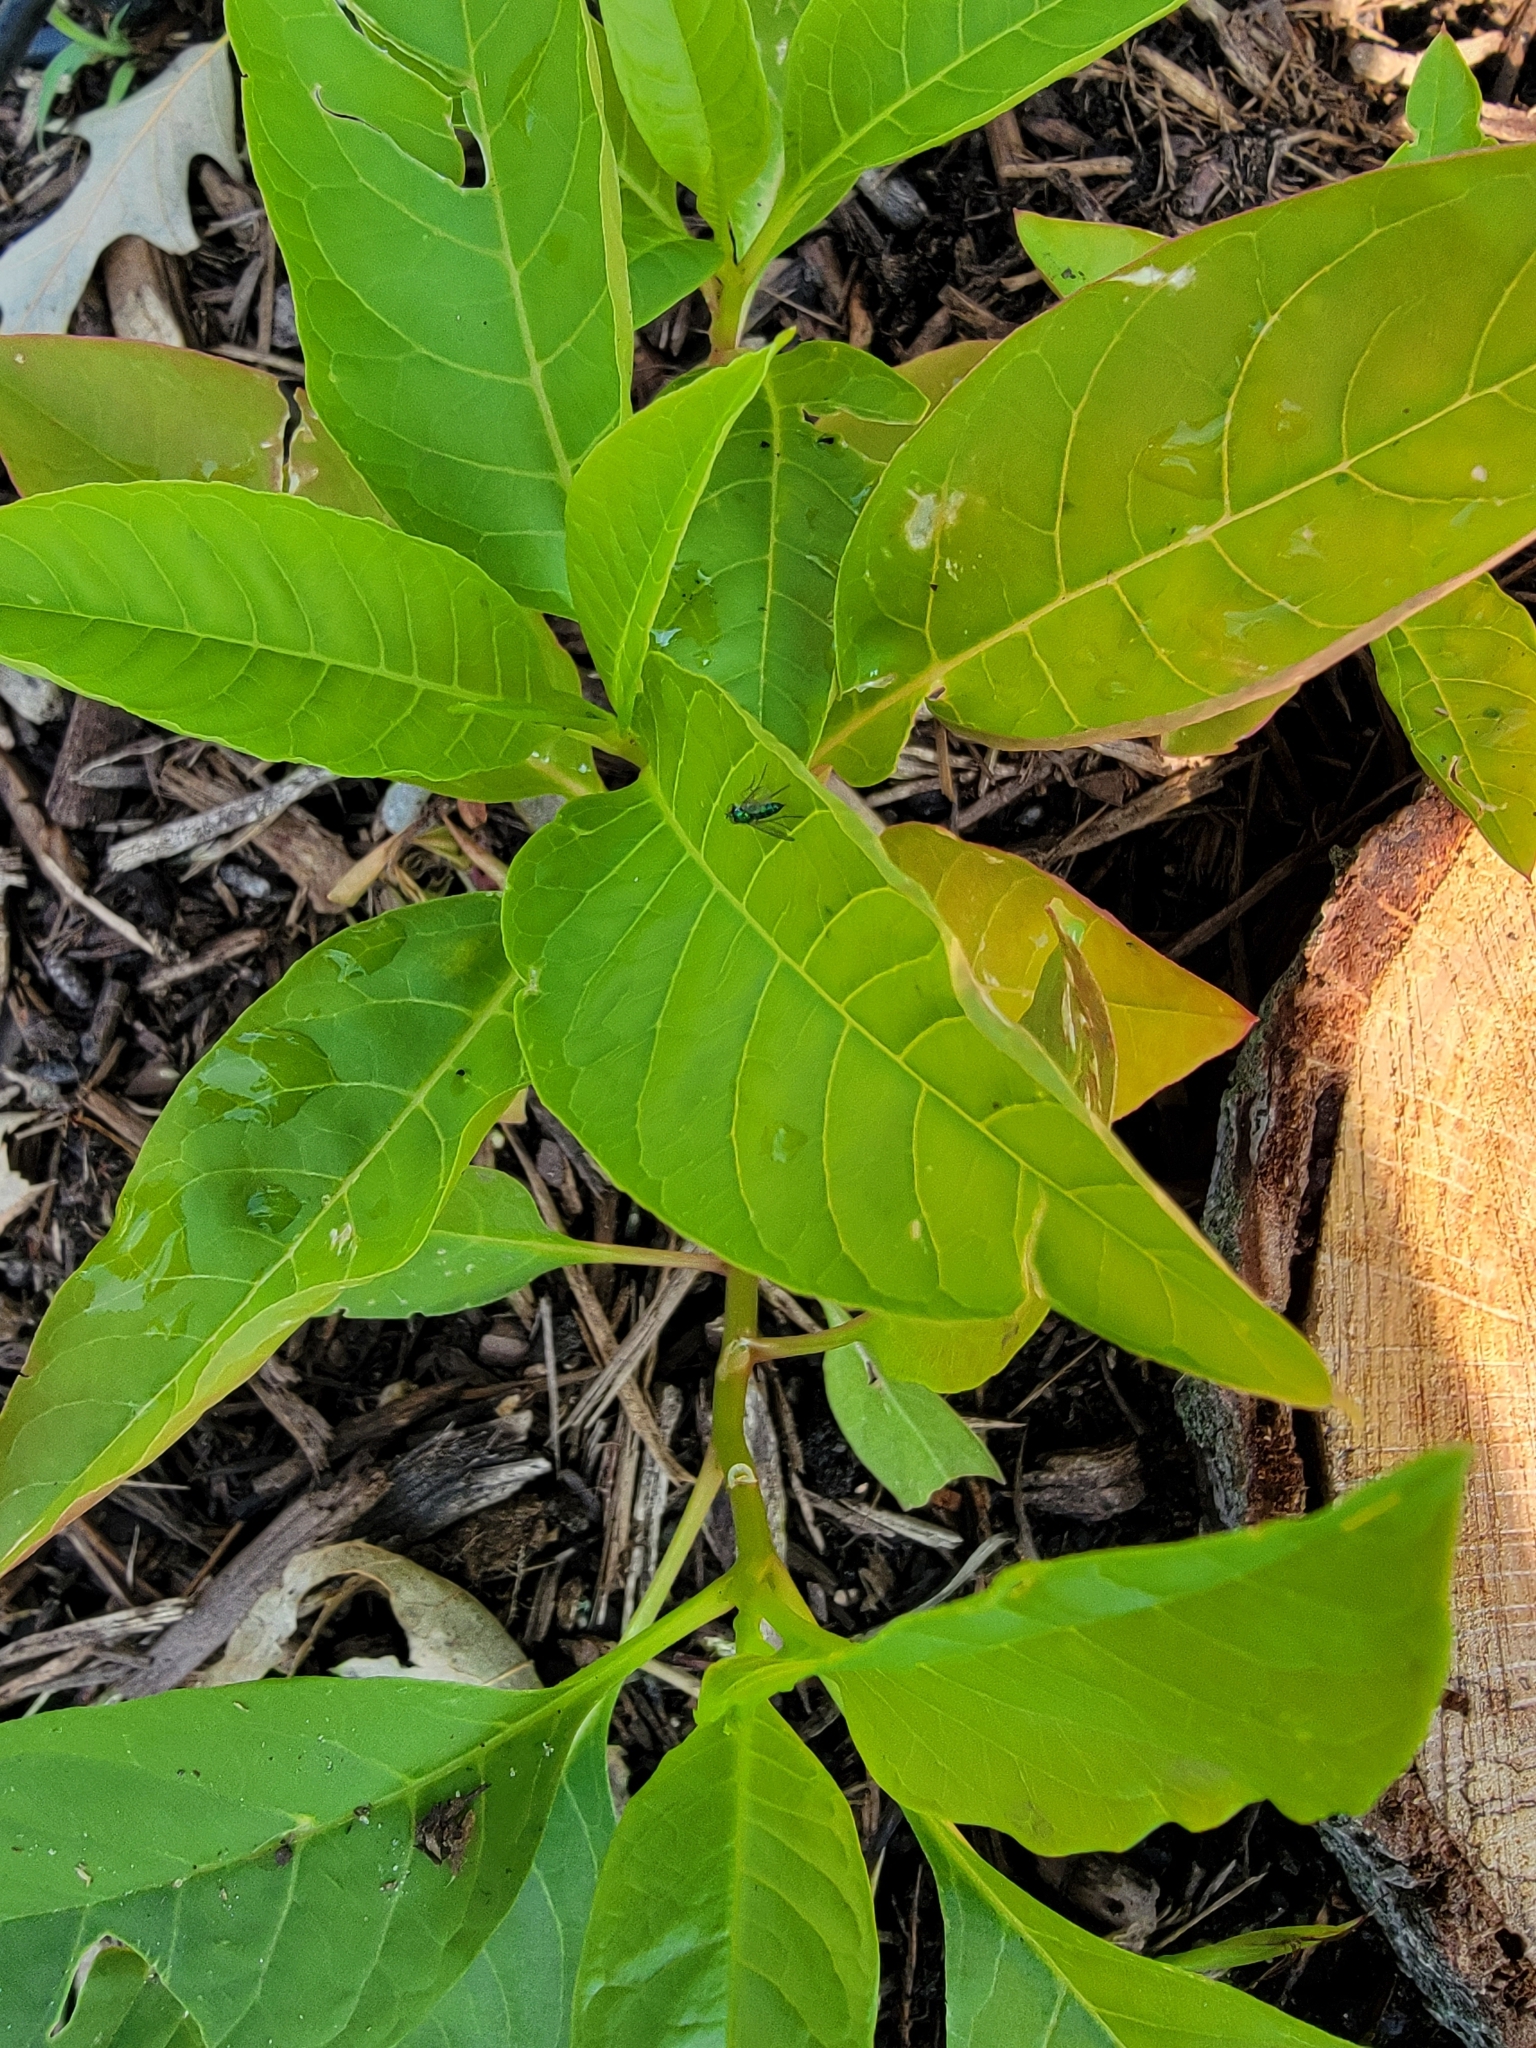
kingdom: Plantae
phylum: Tracheophyta
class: Magnoliopsida
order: Caryophyllales
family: Phytolaccaceae
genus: Phytolacca
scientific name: Phytolacca americana
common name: American pokeweed
